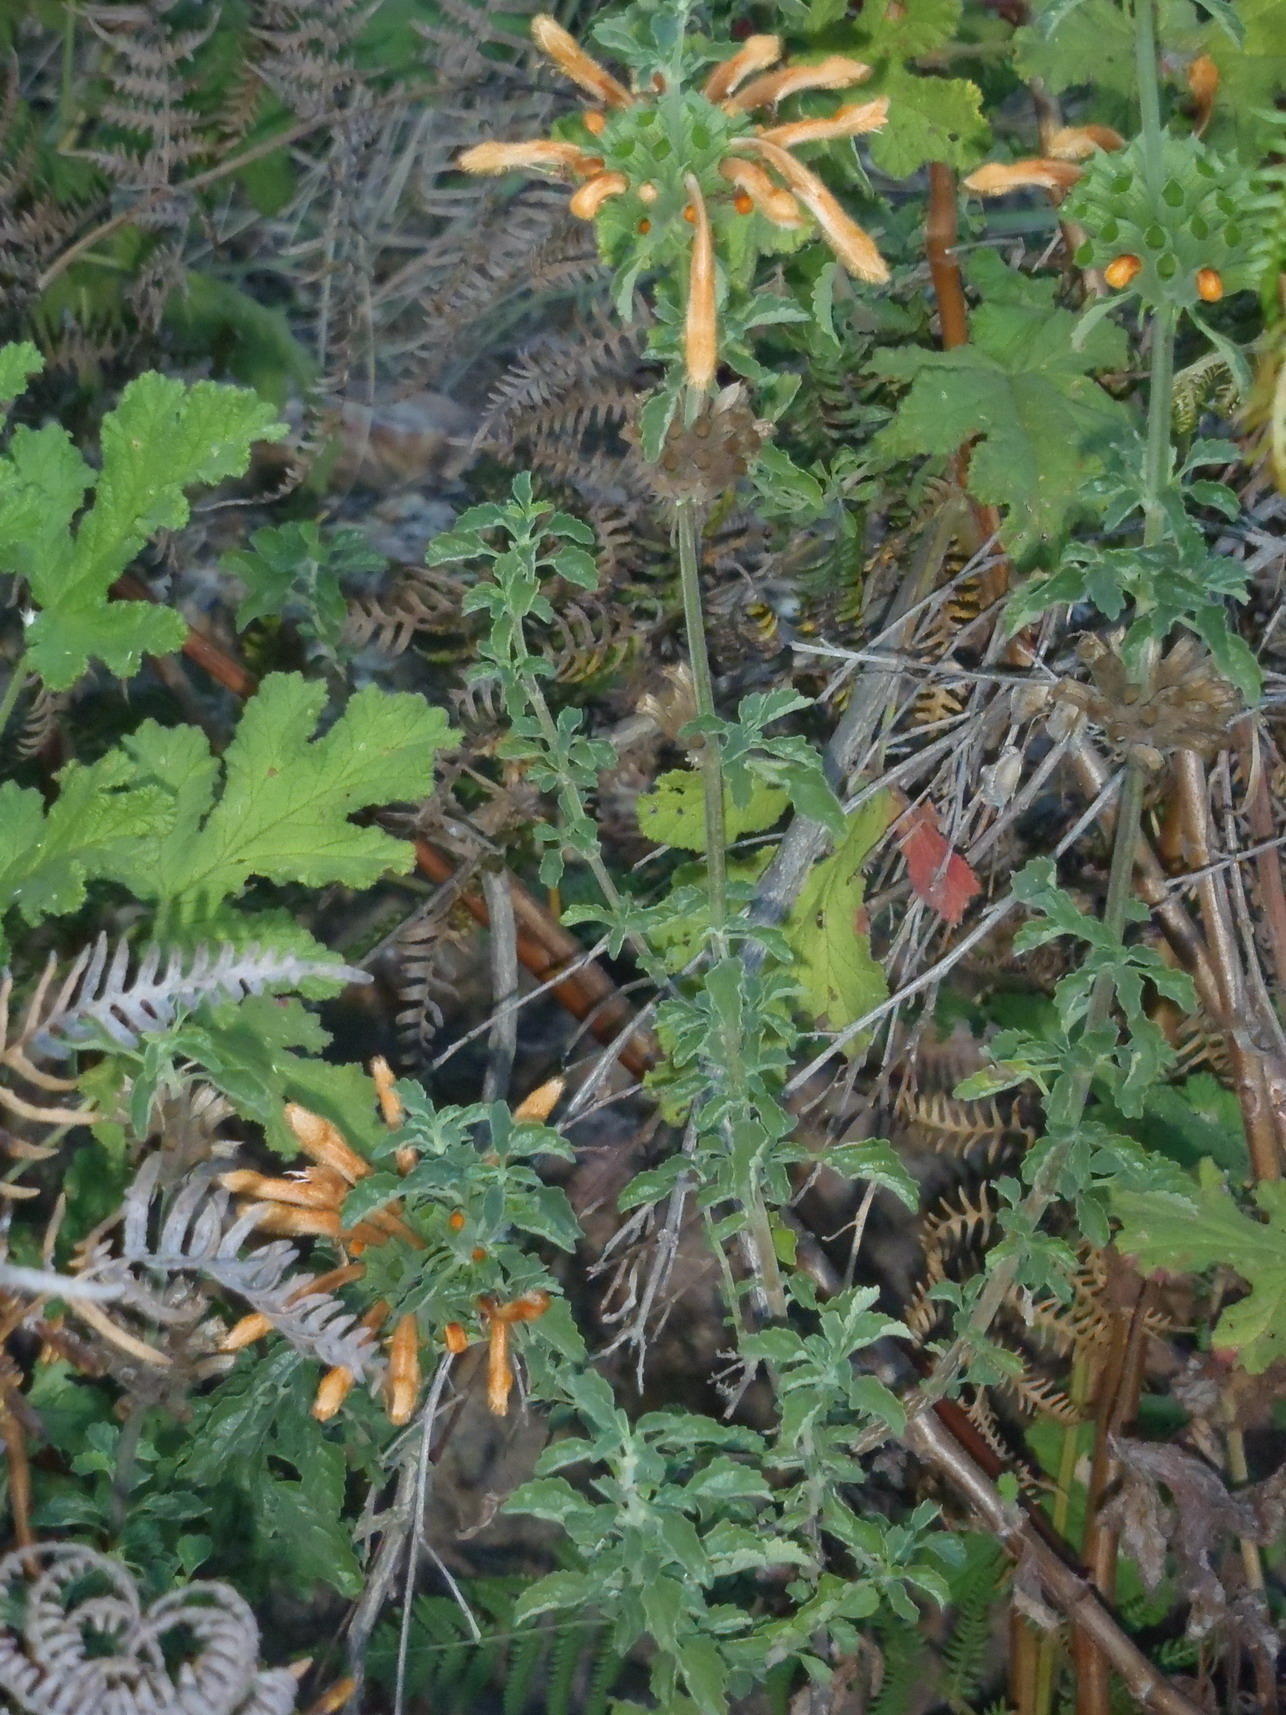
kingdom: Plantae
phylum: Tracheophyta
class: Magnoliopsida
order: Lamiales
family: Lamiaceae
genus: Leonotis
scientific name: Leonotis ocymifolia
